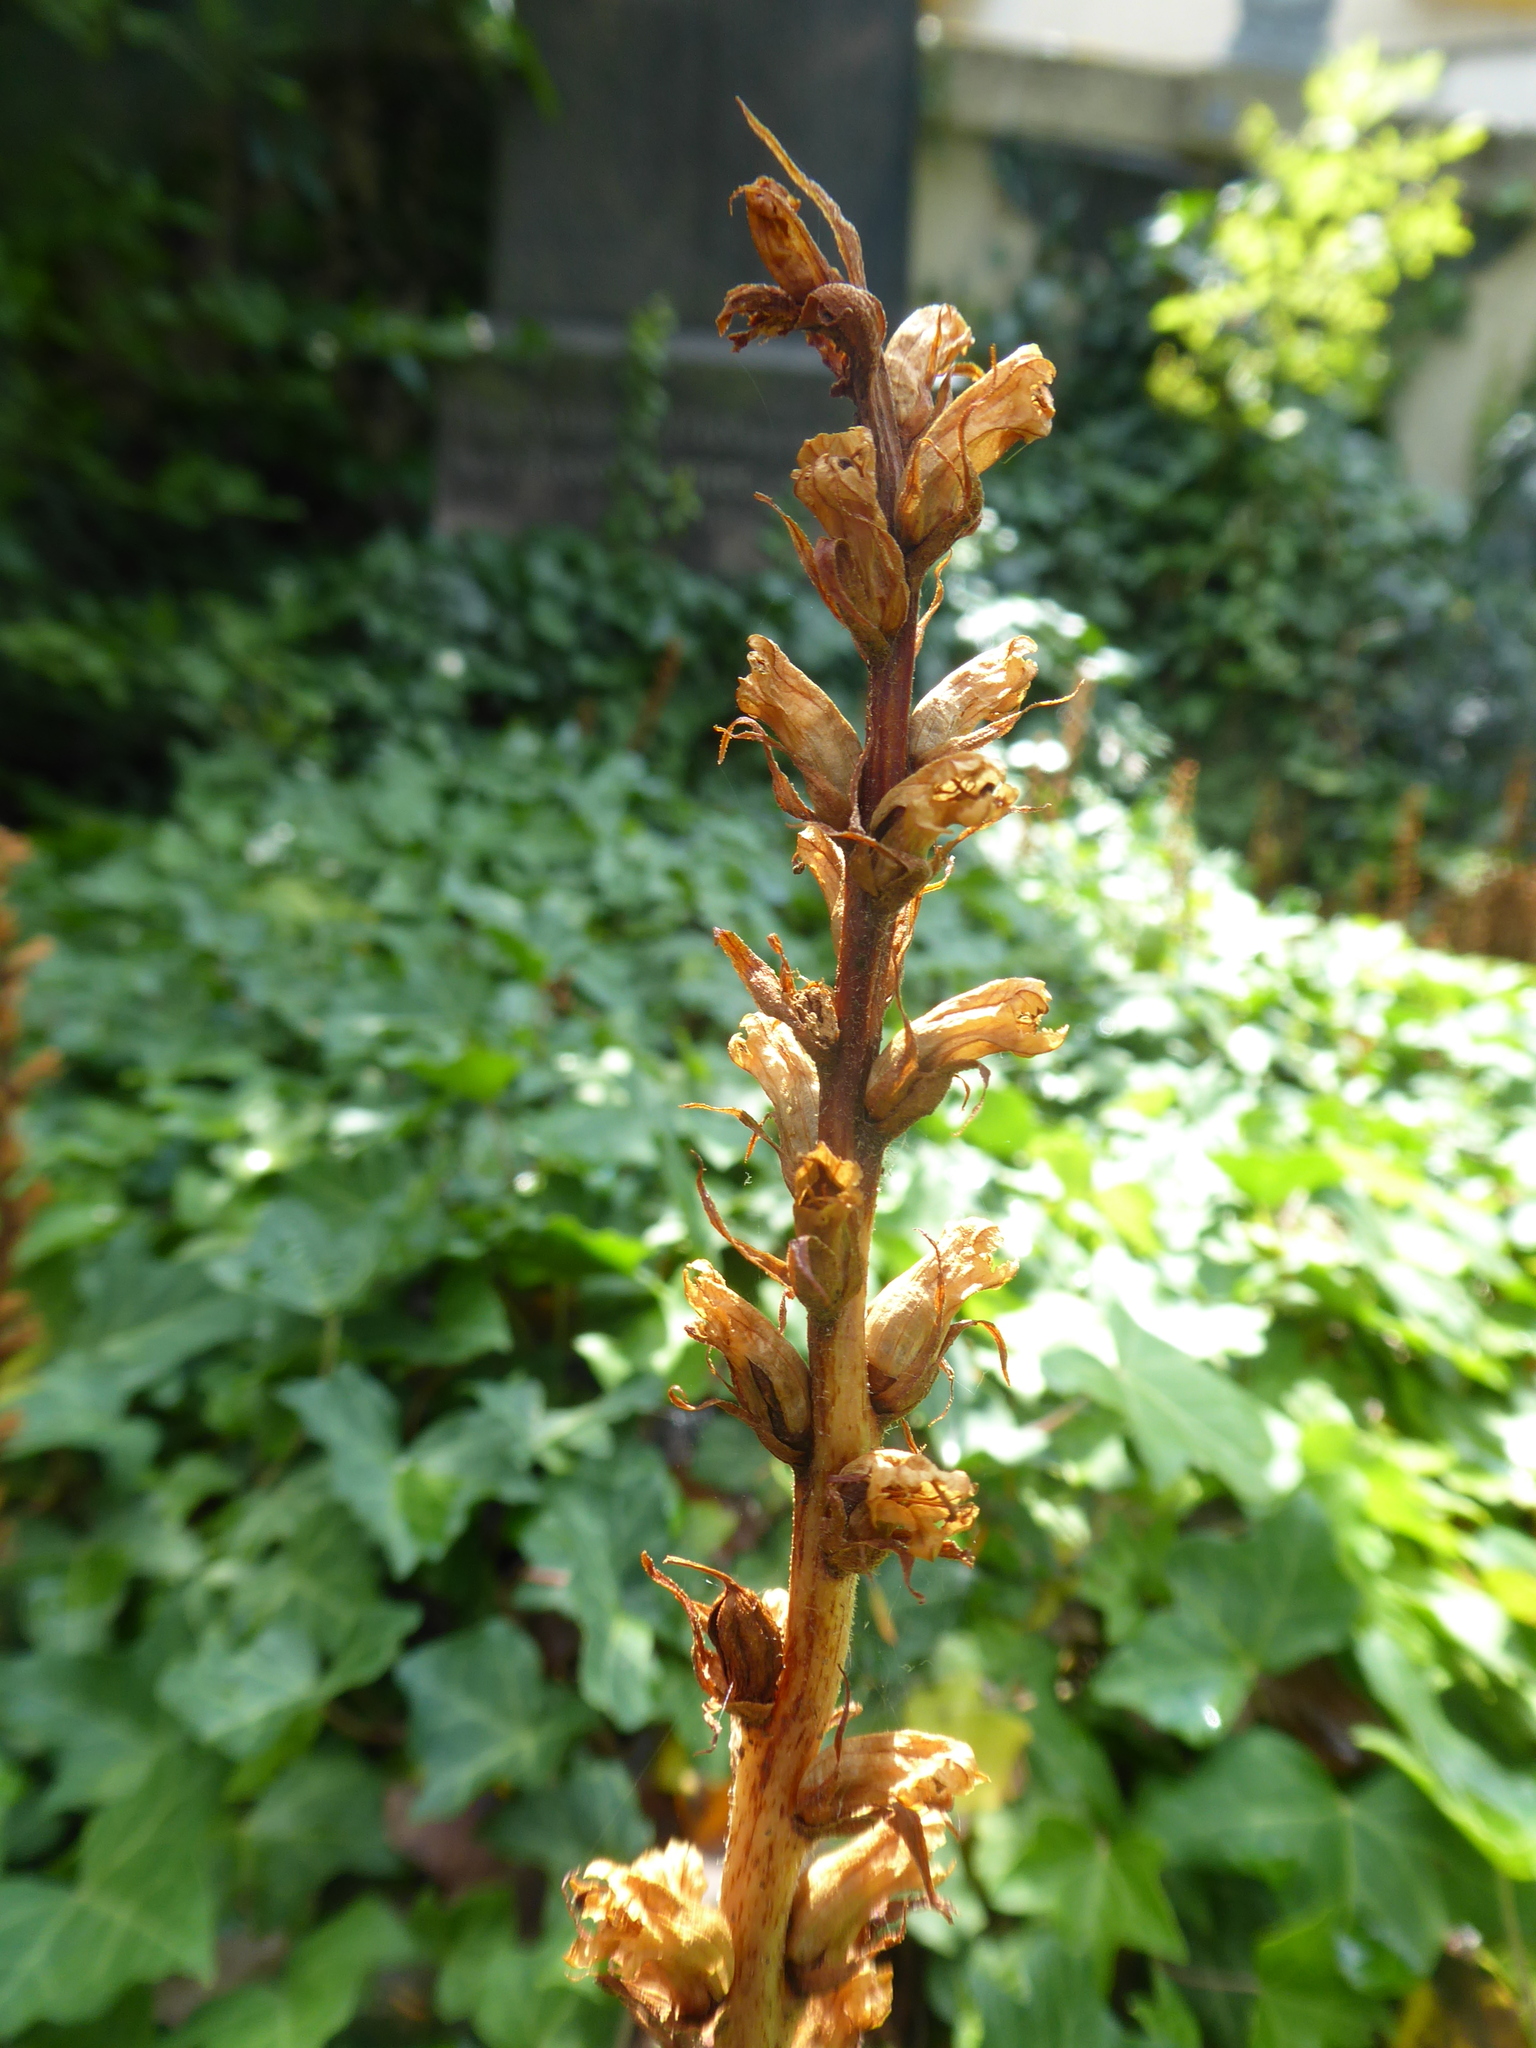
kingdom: Plantae
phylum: Tracheophyta
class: Magnoliopsida
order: Lamiales
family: Orobanchaceae
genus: Orobanche
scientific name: Orobanche hederae
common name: Ivy broomrape
